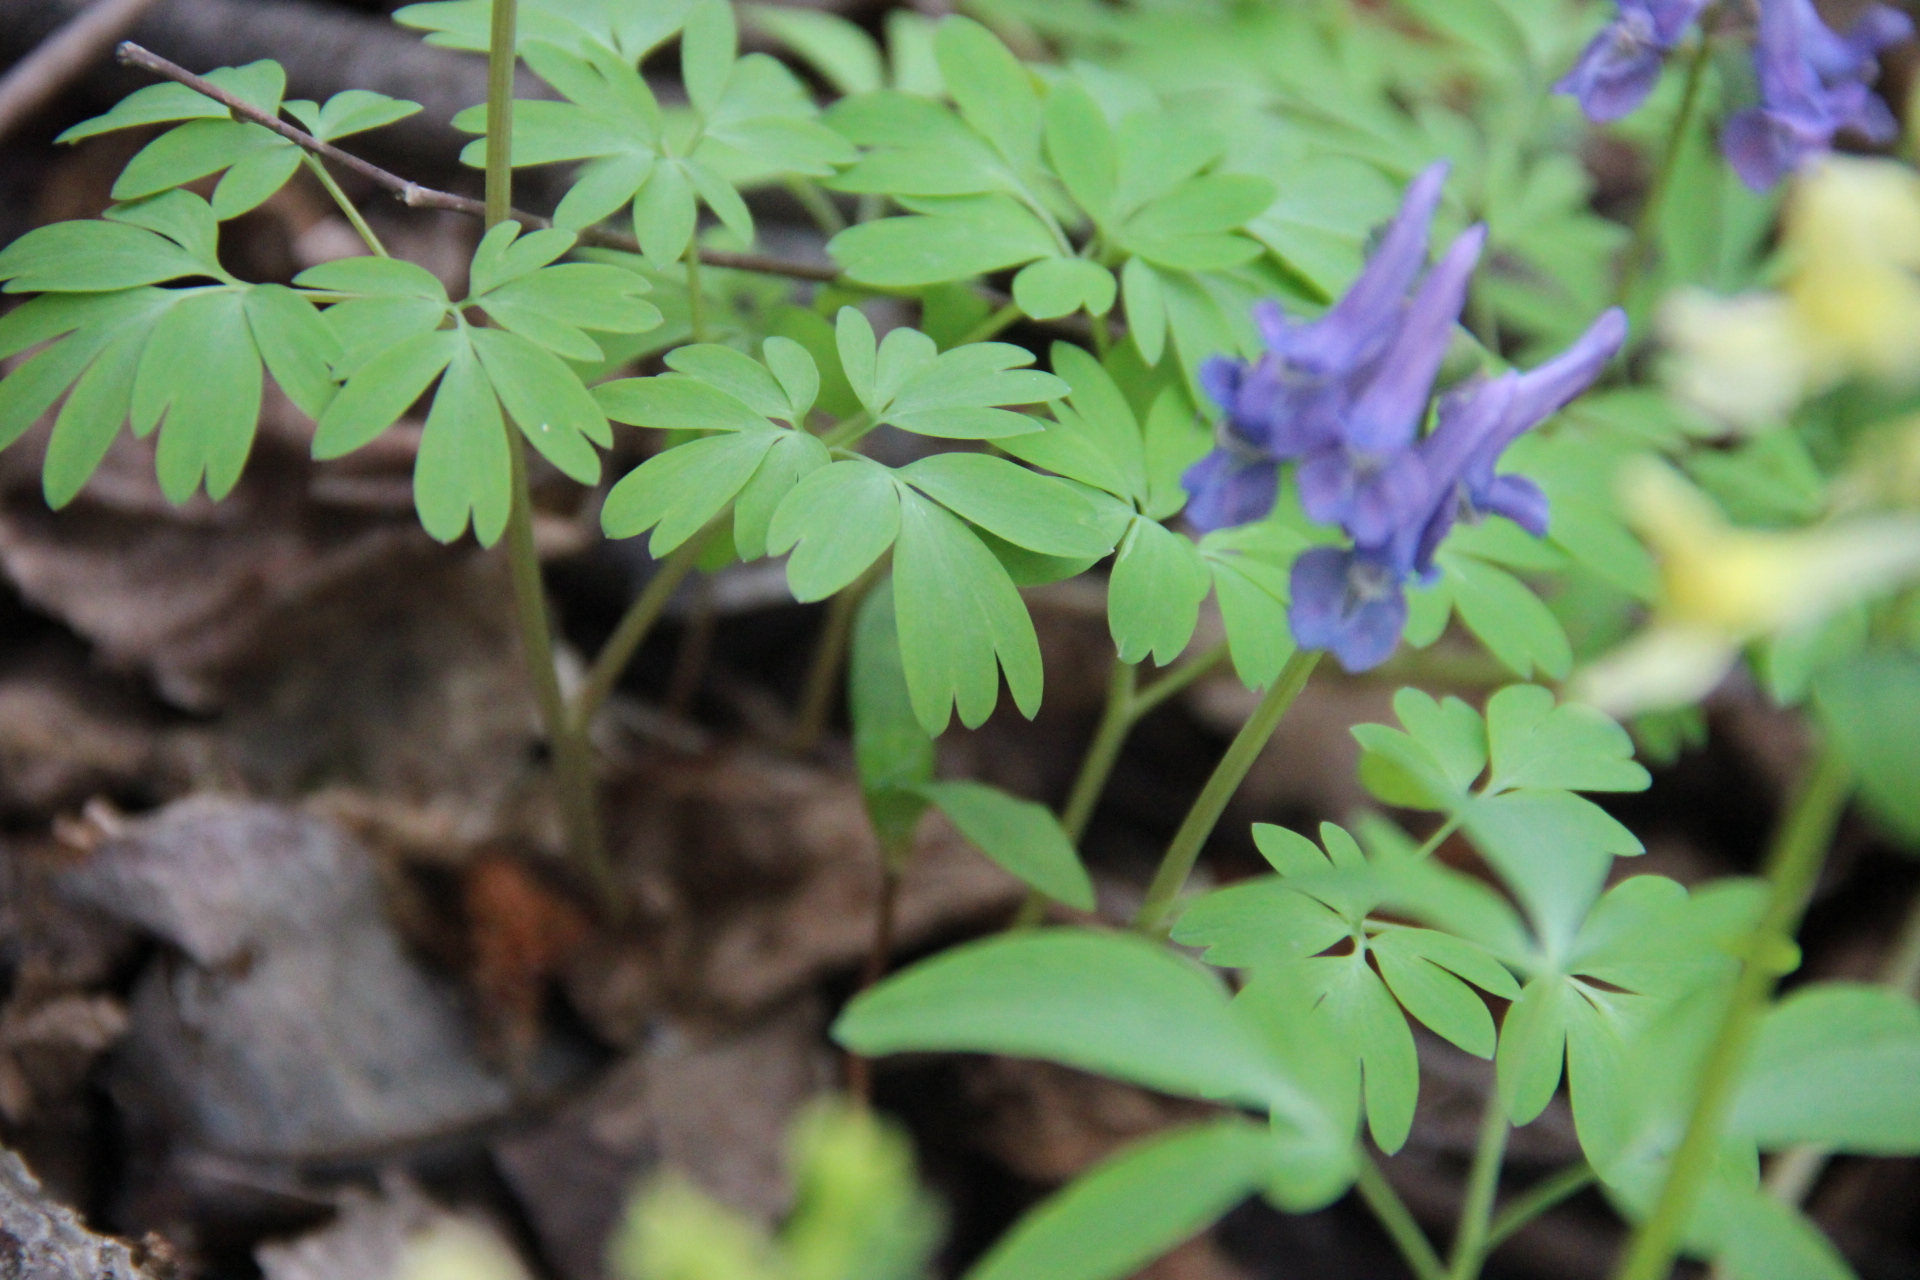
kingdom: Plantae
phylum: Tracheophyta
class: Magnoliopsida
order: Ranunculales
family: Papaveraceae
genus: Corydalis
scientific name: Corydalis solida
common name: Bird-in-a-bush
